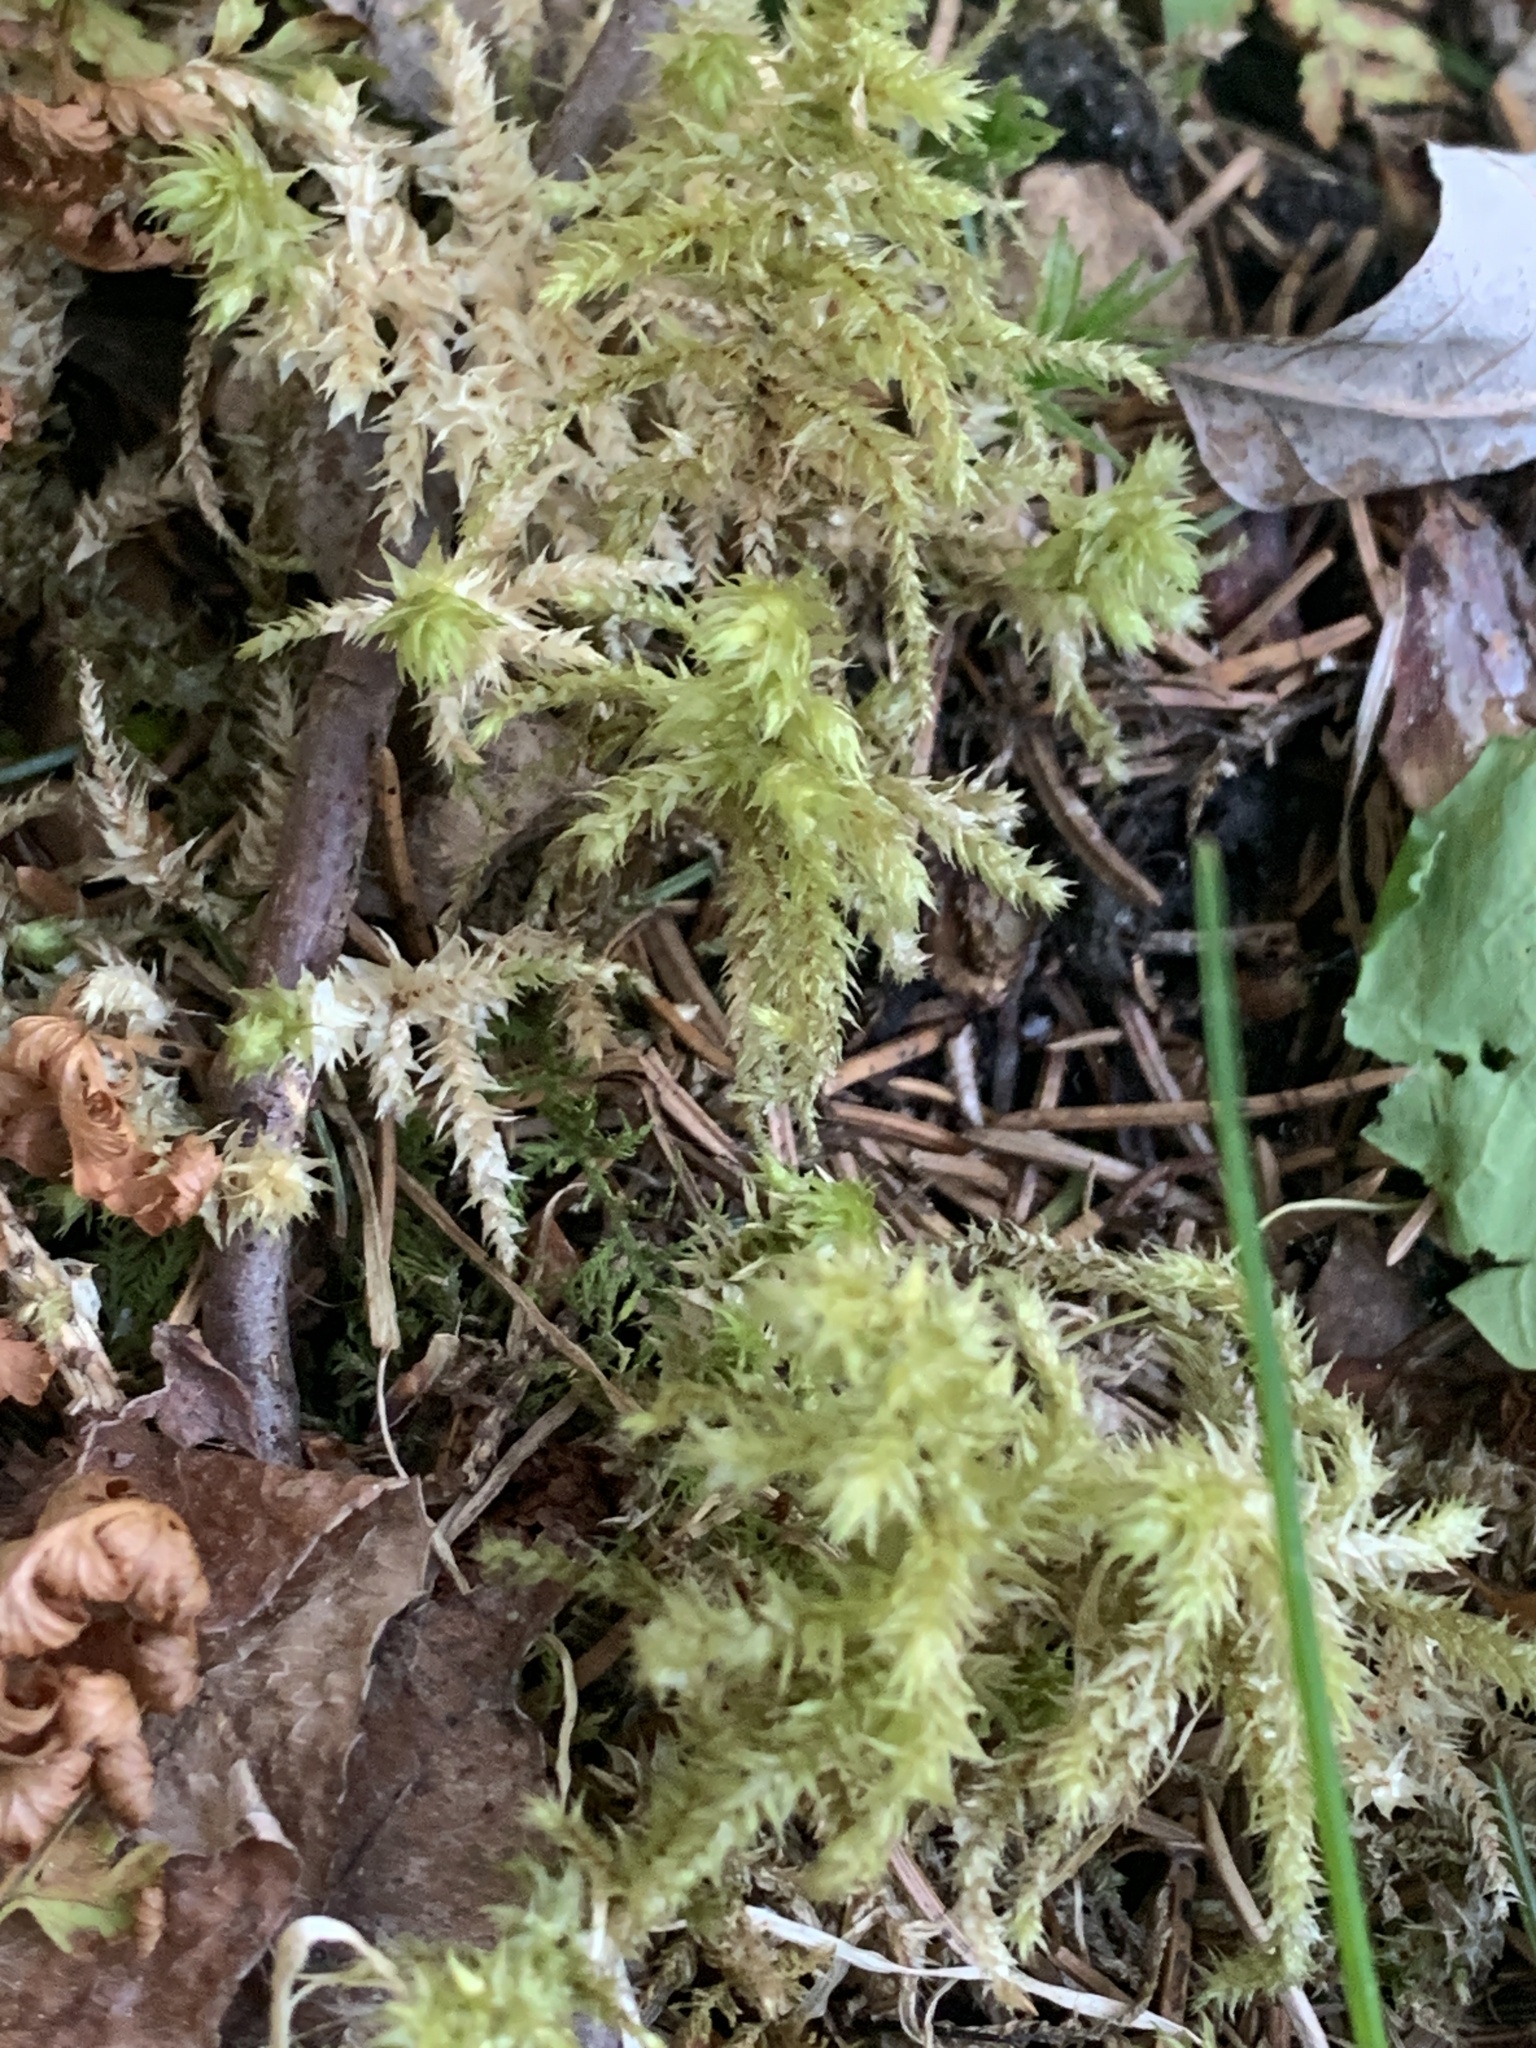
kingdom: Plantae
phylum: Bryophyta
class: Bryopsida
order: Hypnales
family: Hylocomiaceae
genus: Hylocomiadelphus
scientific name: Hylocomiadelphus triquetrus
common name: Rough goose neck moss
